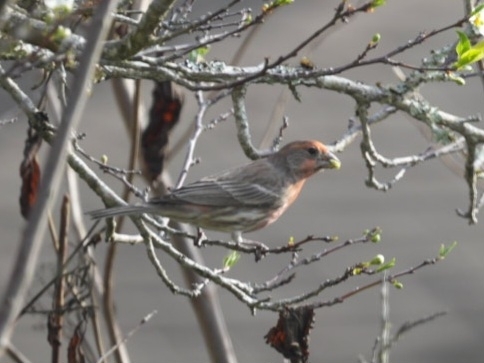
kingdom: Animalia
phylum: Chordata
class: Aves
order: Passeriformes
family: Fringillidae
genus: Haemorhous
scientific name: Haemorhous mexicanus
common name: House finch
